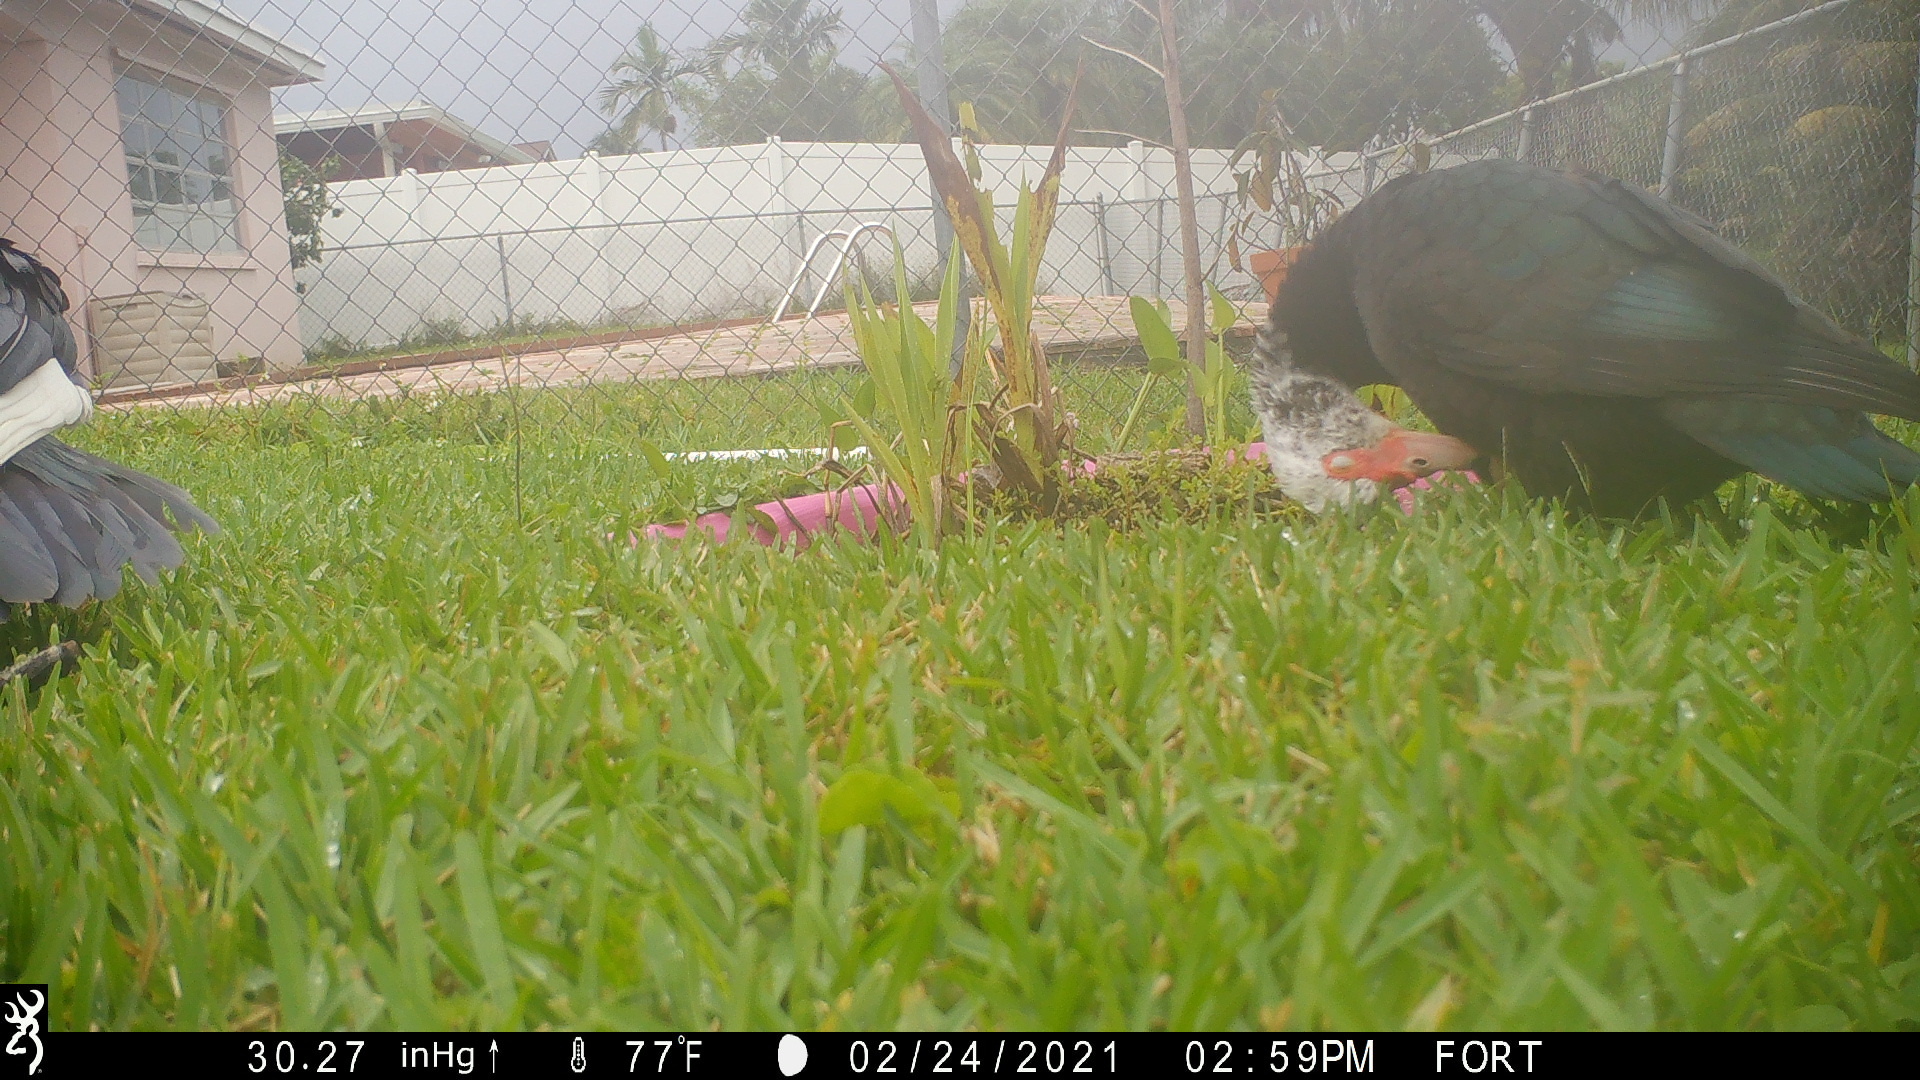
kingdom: Animalia
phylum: Chordata
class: Aves
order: Anseriformes
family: Anatidae
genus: Cairina
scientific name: Cairina moschata
